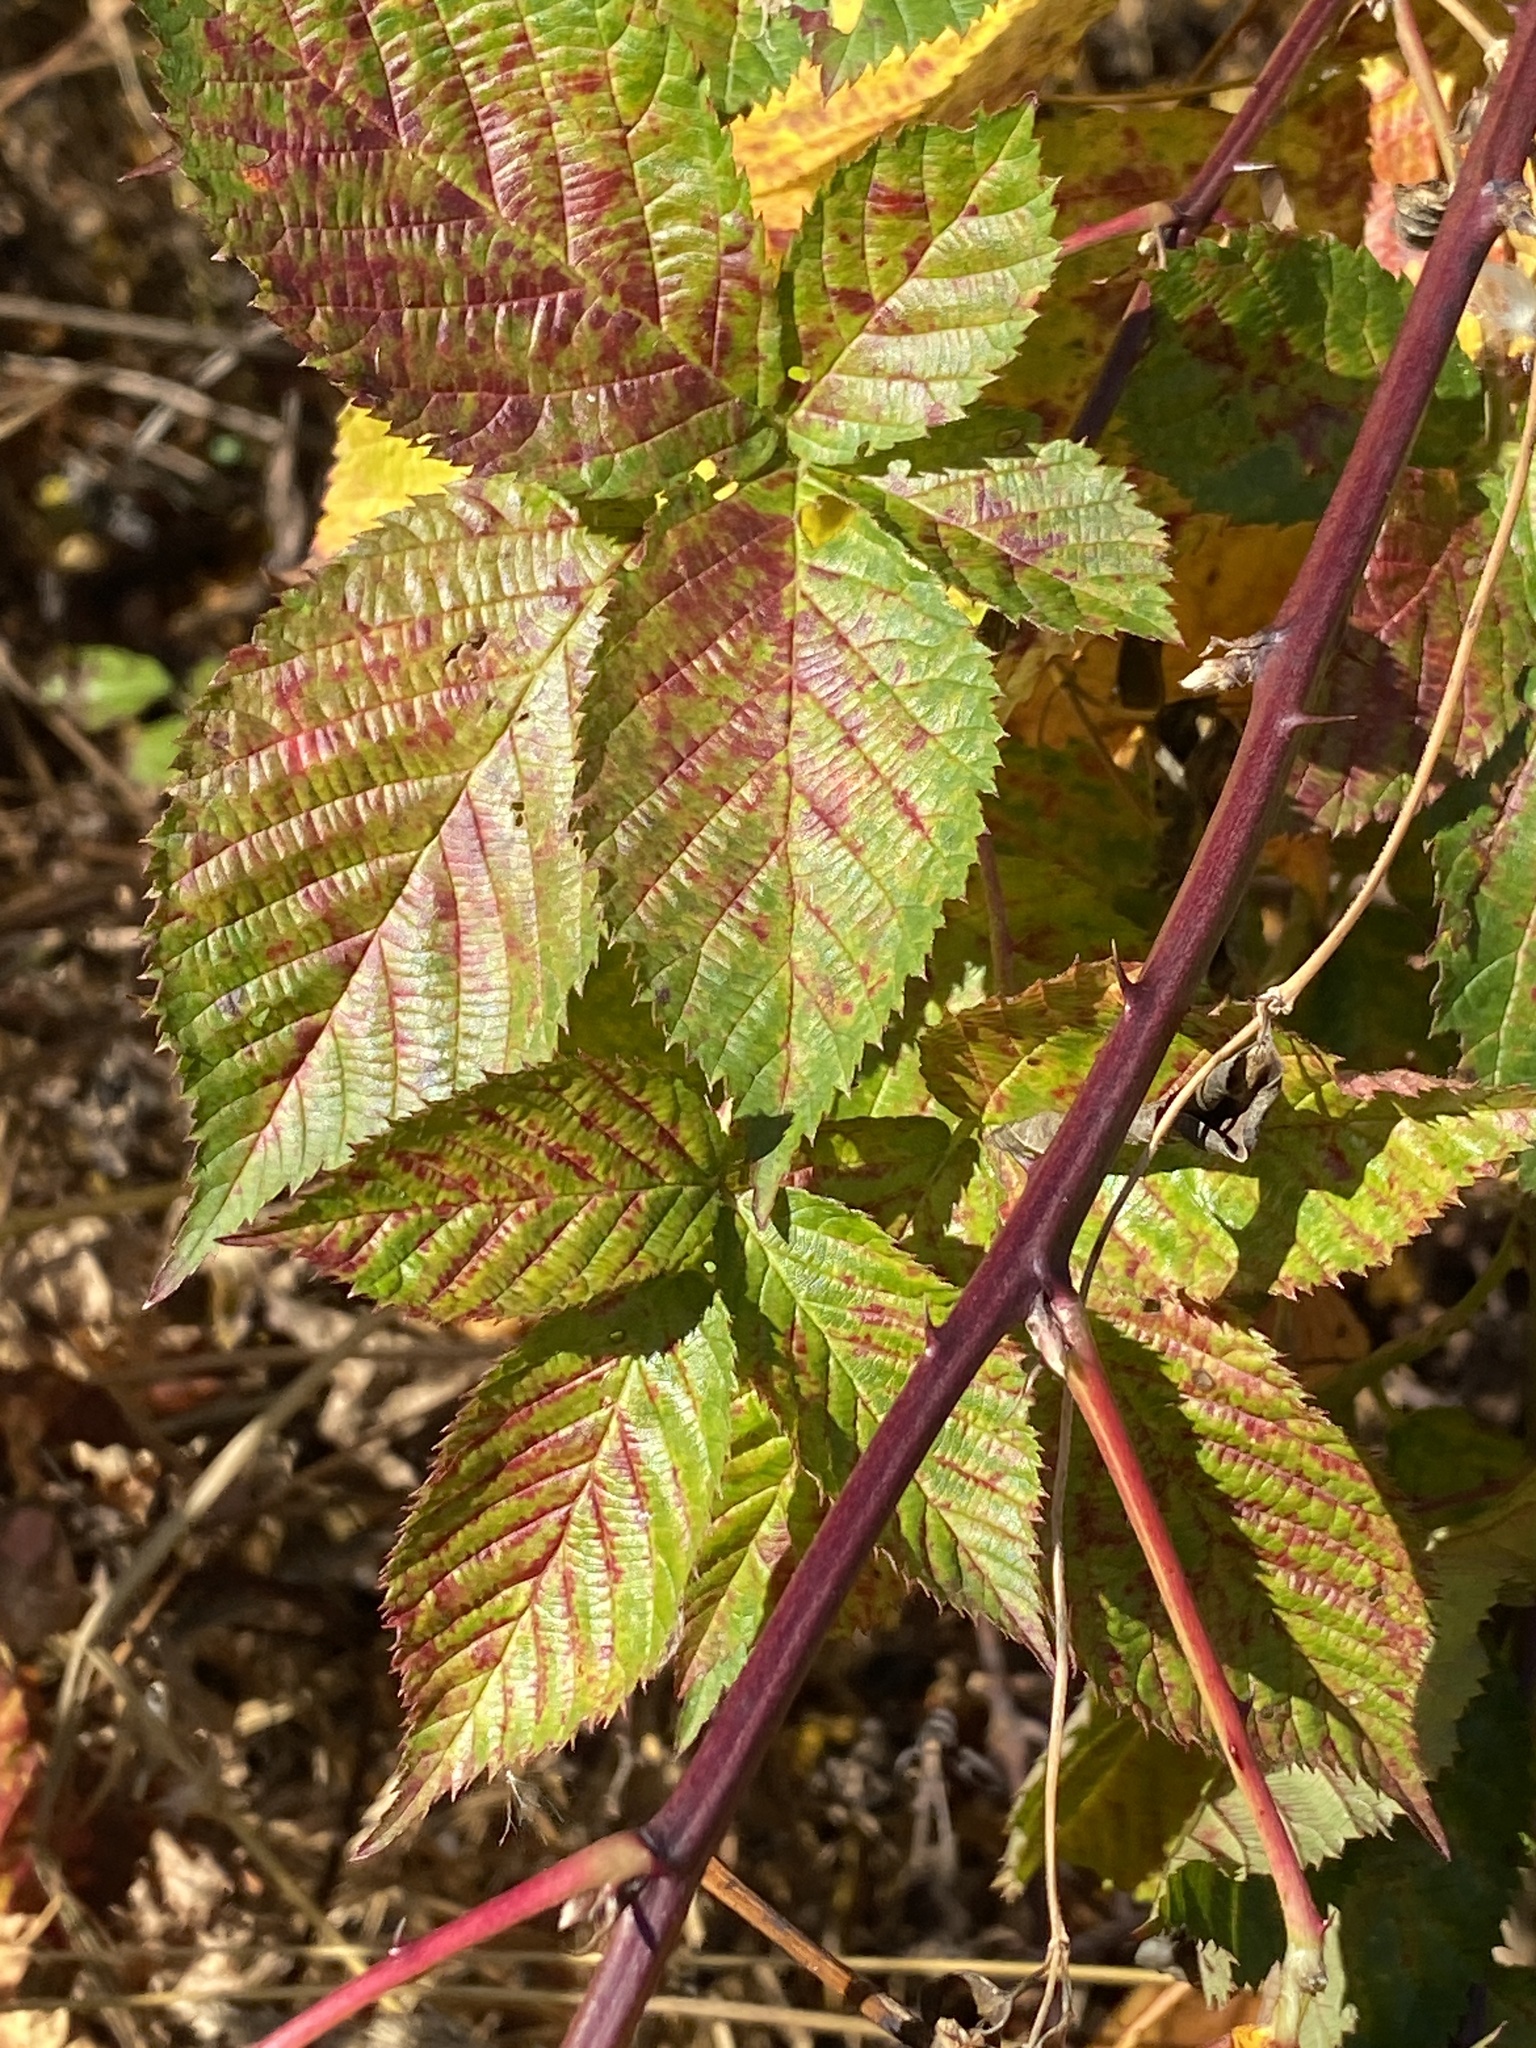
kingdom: Plantae
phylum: Tracheophyta
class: Magnoliopsida
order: Rosales
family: Rosaceae
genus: Rubus
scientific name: Rubus allegheniensis
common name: Allegheny blackberry
